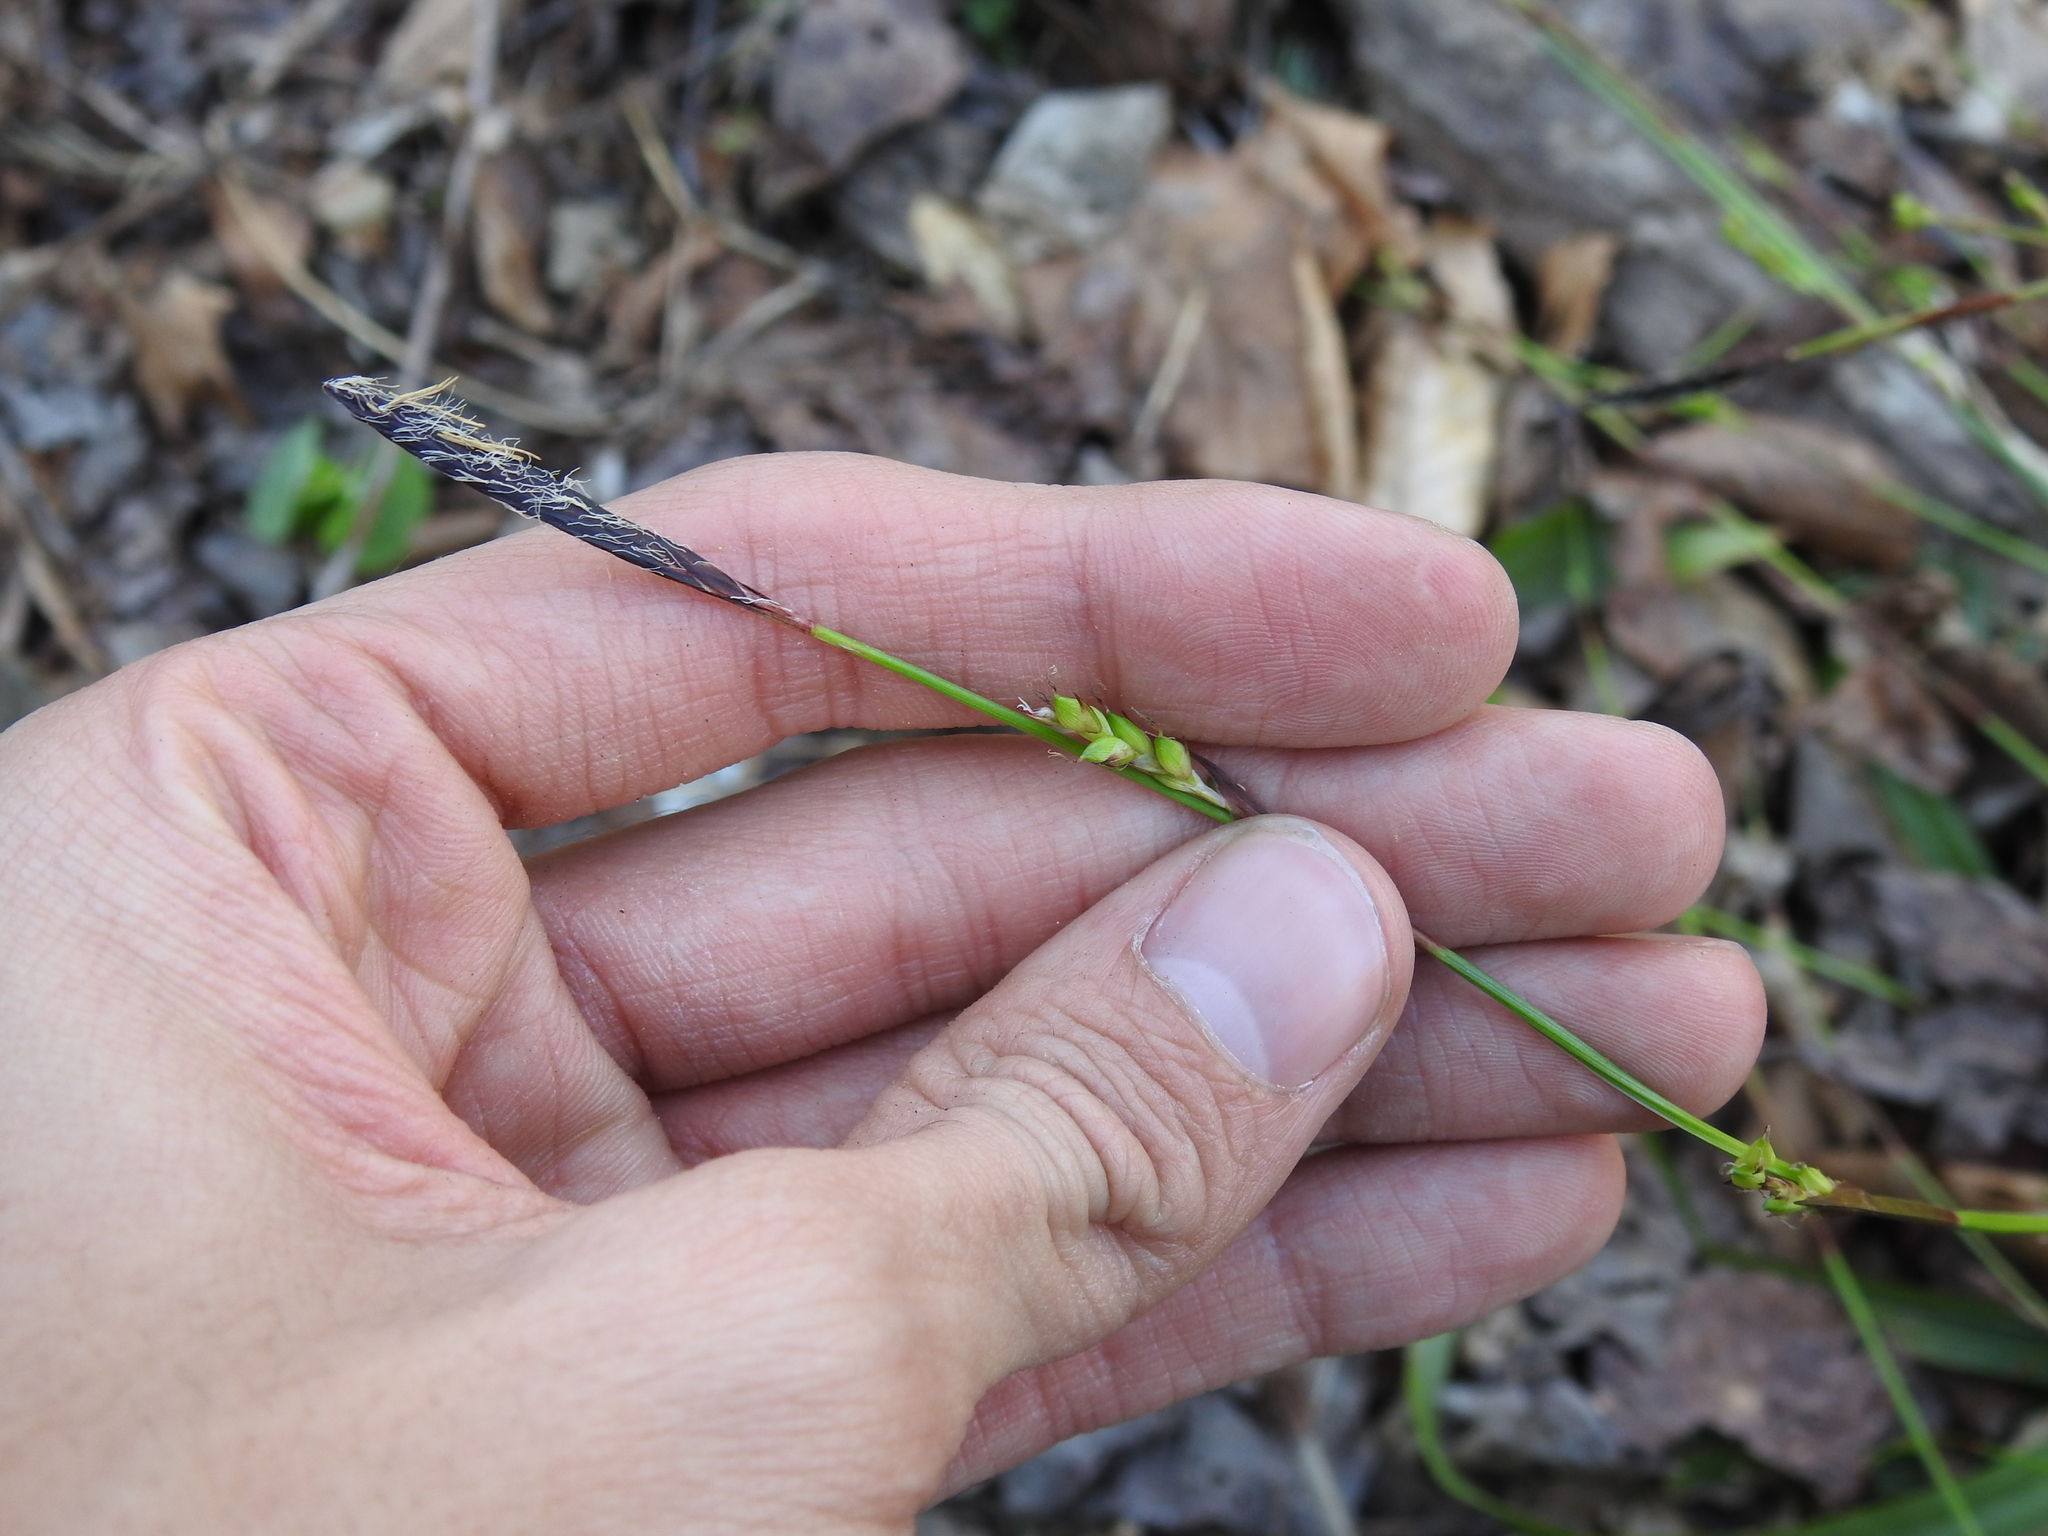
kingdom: Plantae
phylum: Tracheophyta
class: Liliopsida
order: Poales
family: Cyperaceae
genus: Carex
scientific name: Carex plantaginea
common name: Plantain-leaved sedge
